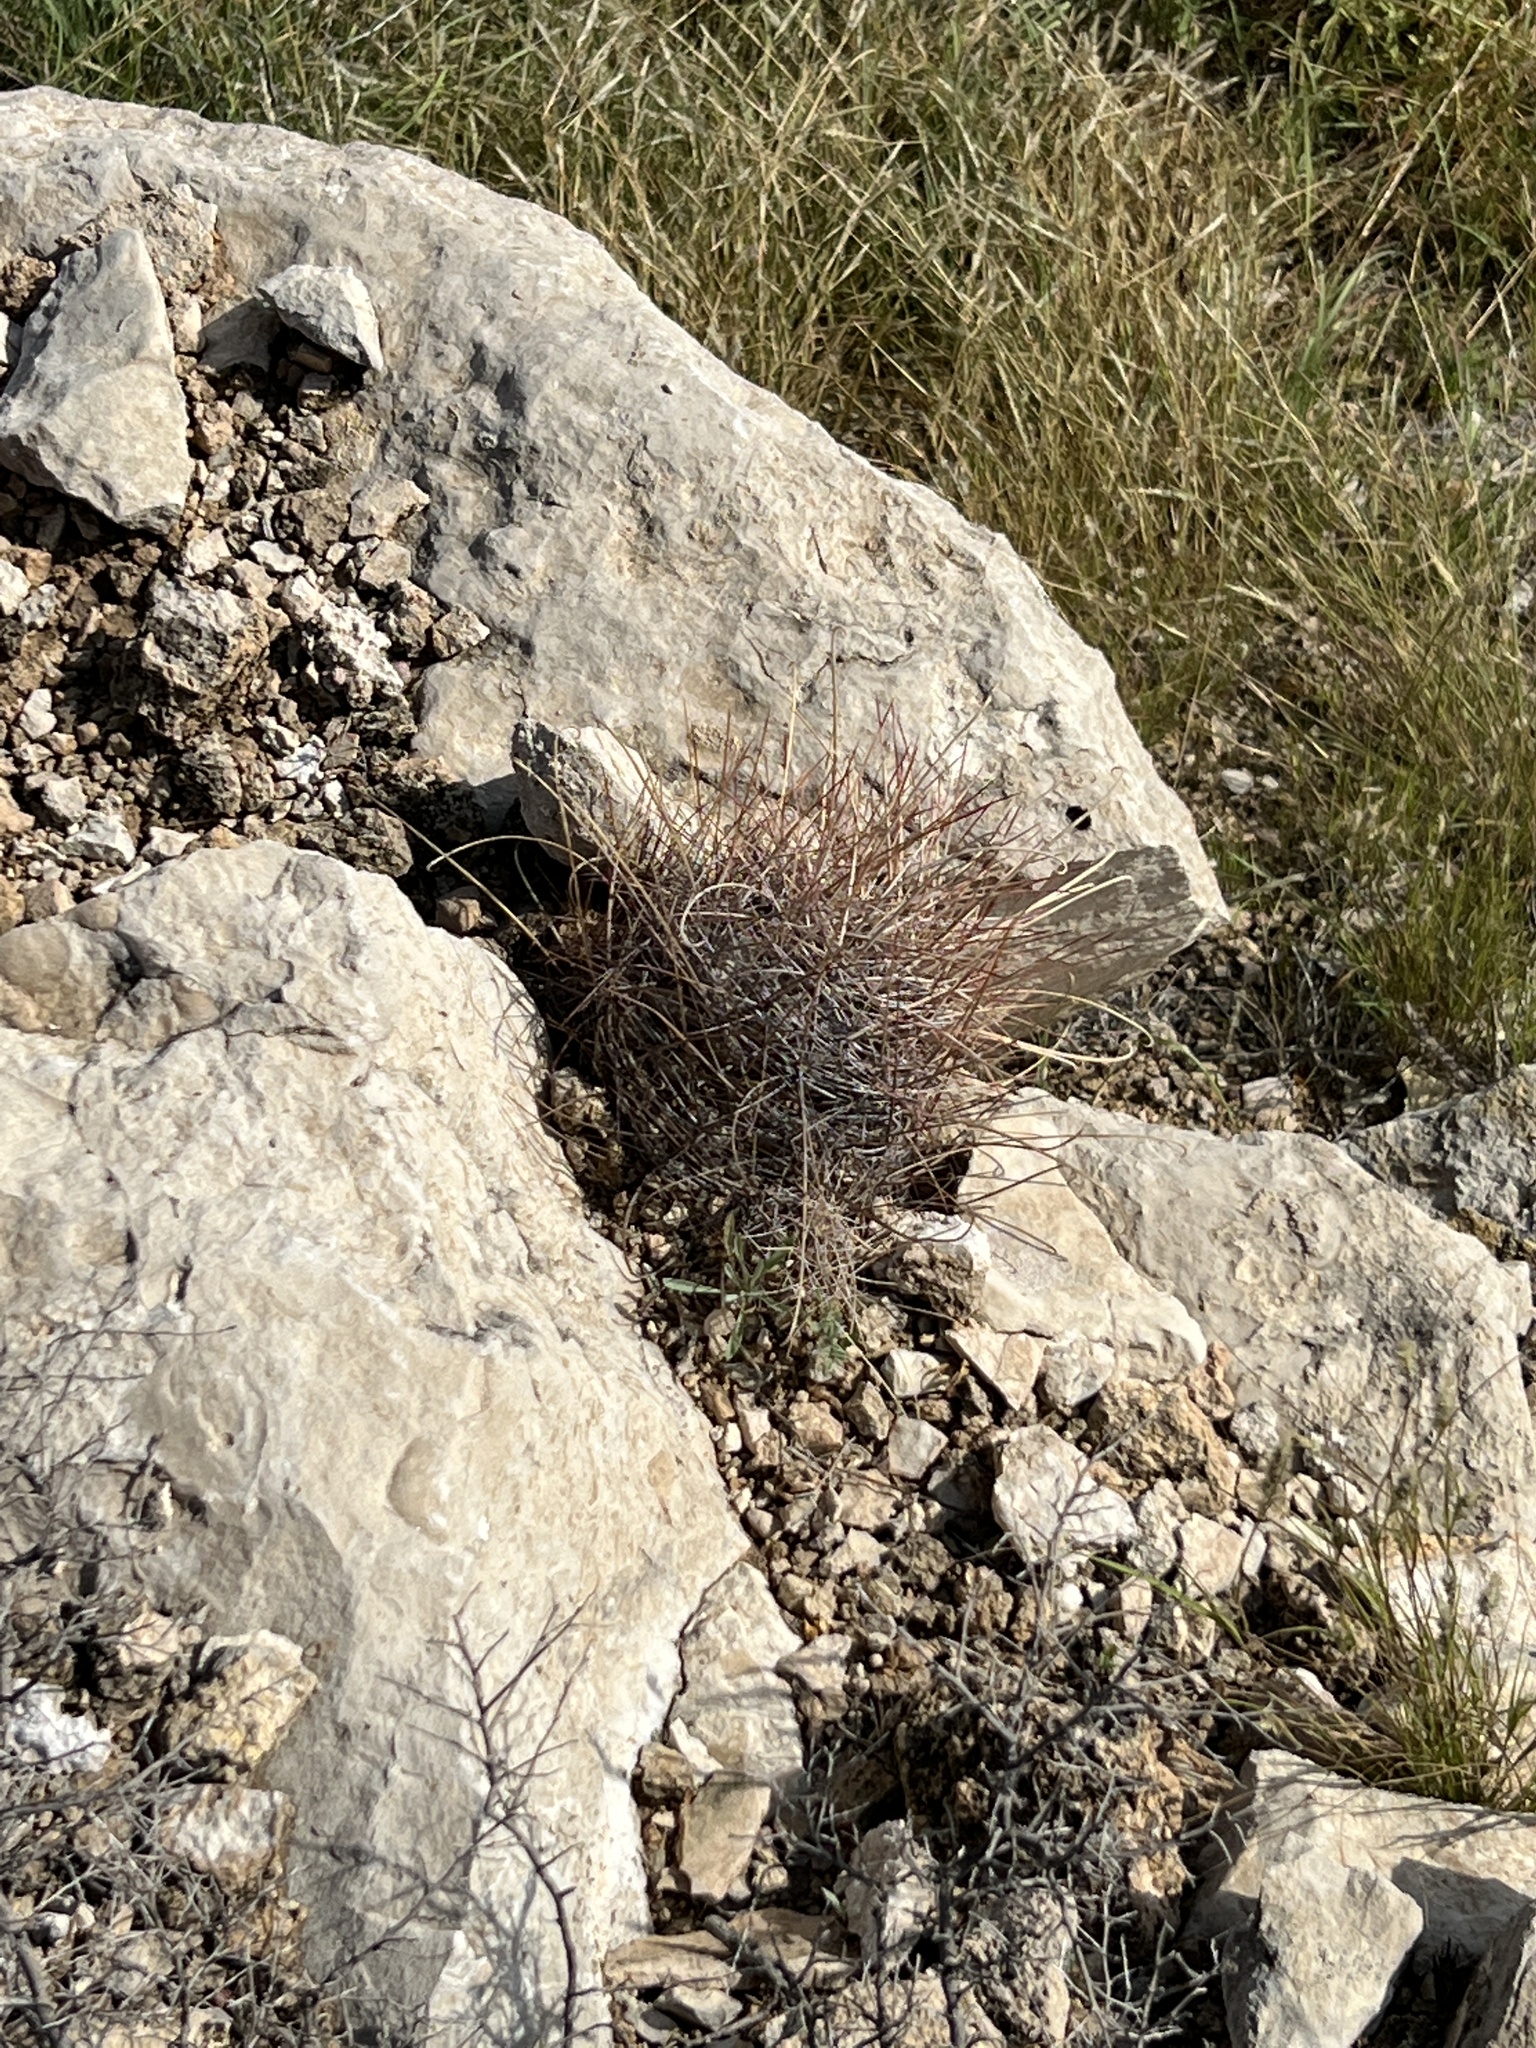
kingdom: Plantae
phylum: Tracheophyta
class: Magnoliopsida
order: Caryophyllales
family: Cactaceae
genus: Bisnaga
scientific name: Bisnaga hamatacantha
